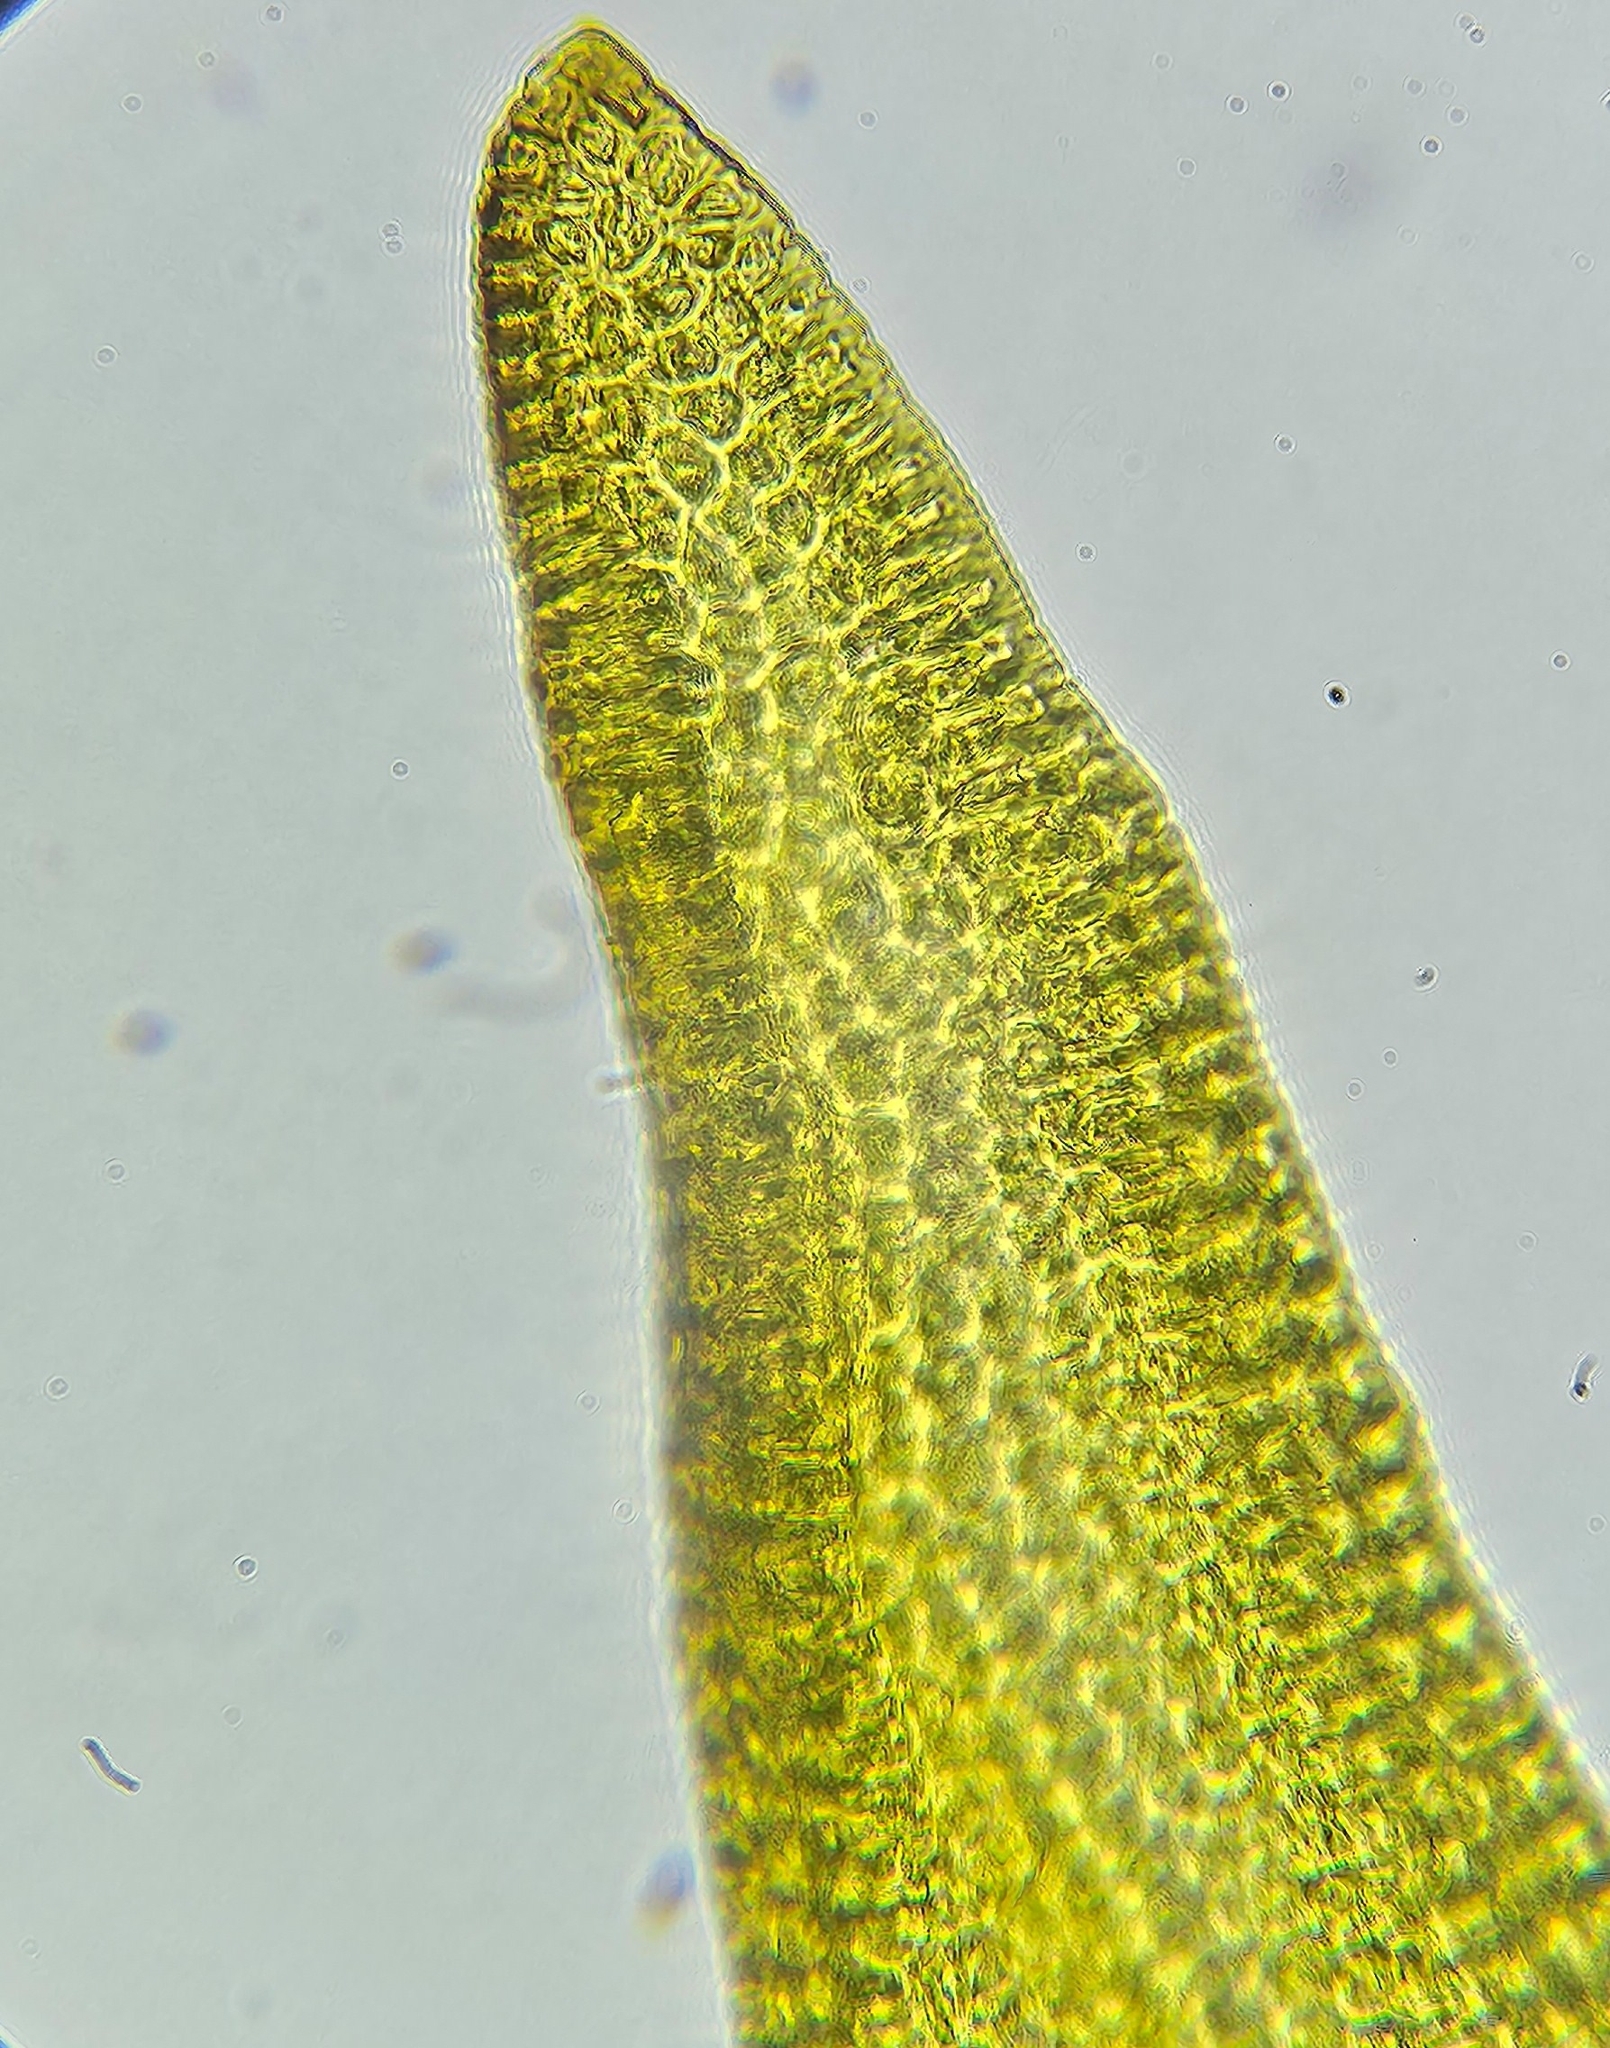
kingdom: Plantae
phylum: Bryophyta
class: Bryopsida
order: Grimmiales
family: Grimmiaceae
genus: Bucklandiella
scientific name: Bucklandiella obtusa
